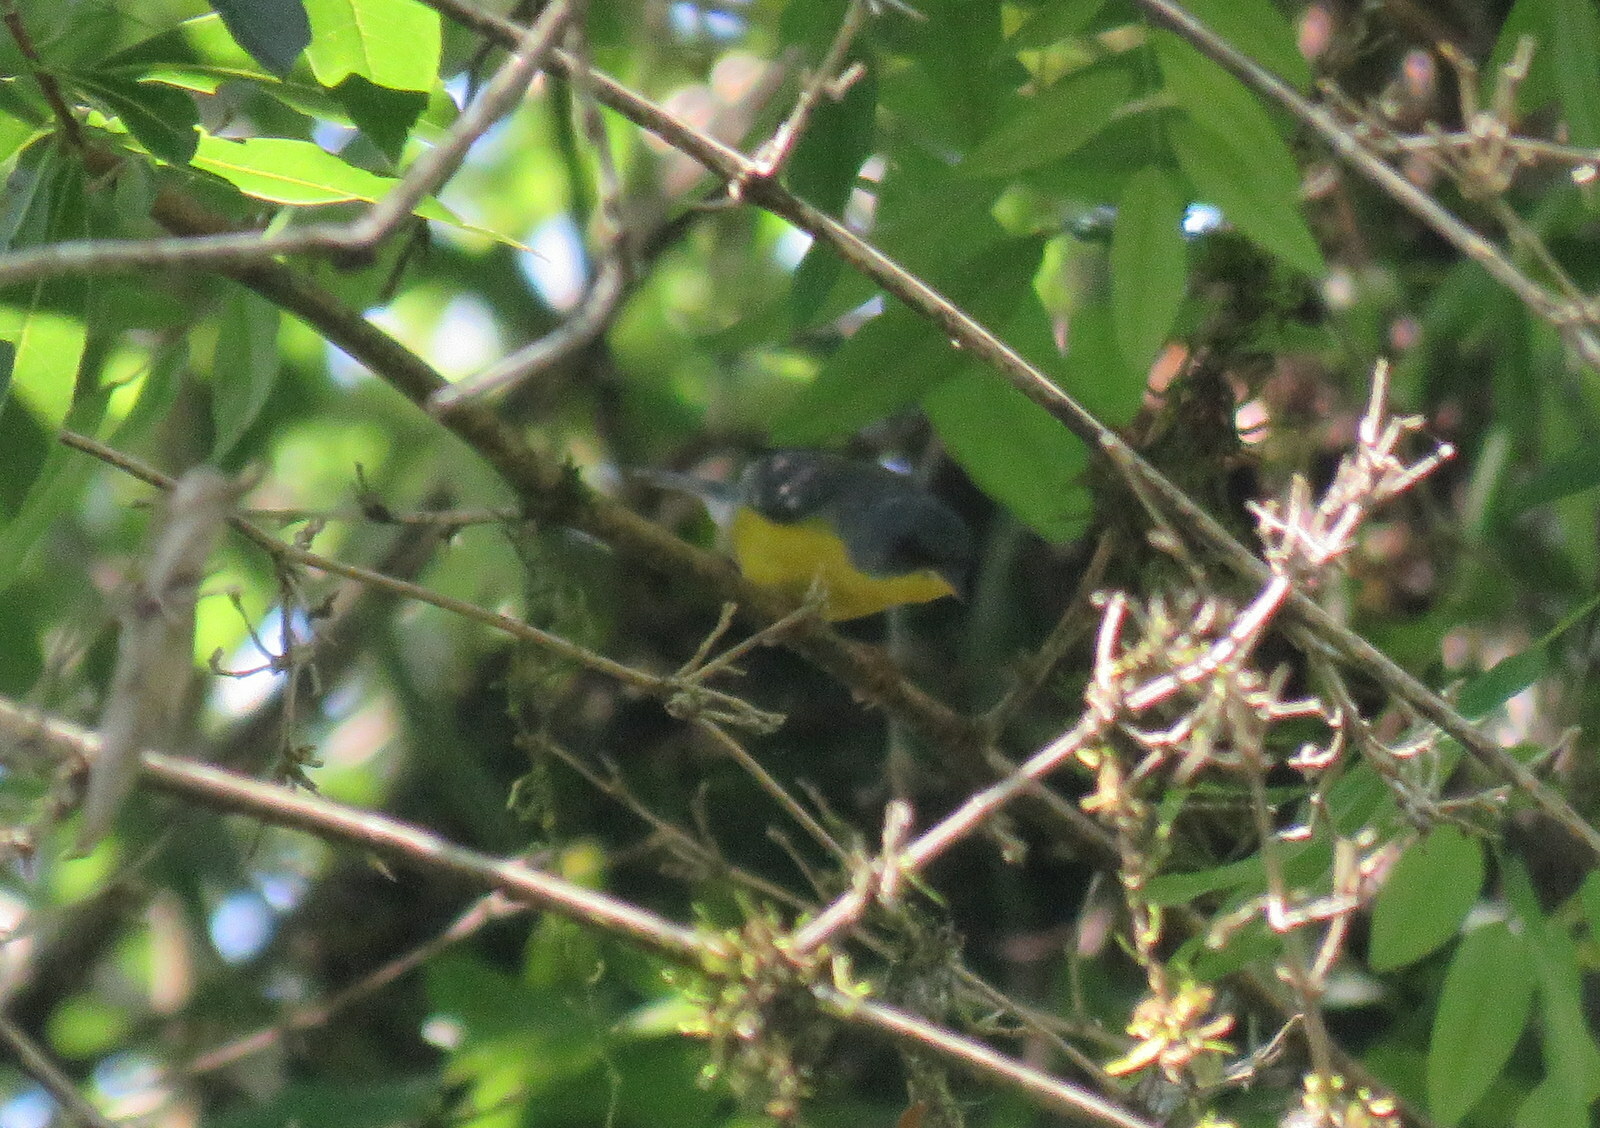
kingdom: Animalia
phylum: Chordata
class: Aves
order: Passeriformes
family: Parulidae
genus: Setophaga
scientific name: Setophaga pitiayumi
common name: Tropical parula
